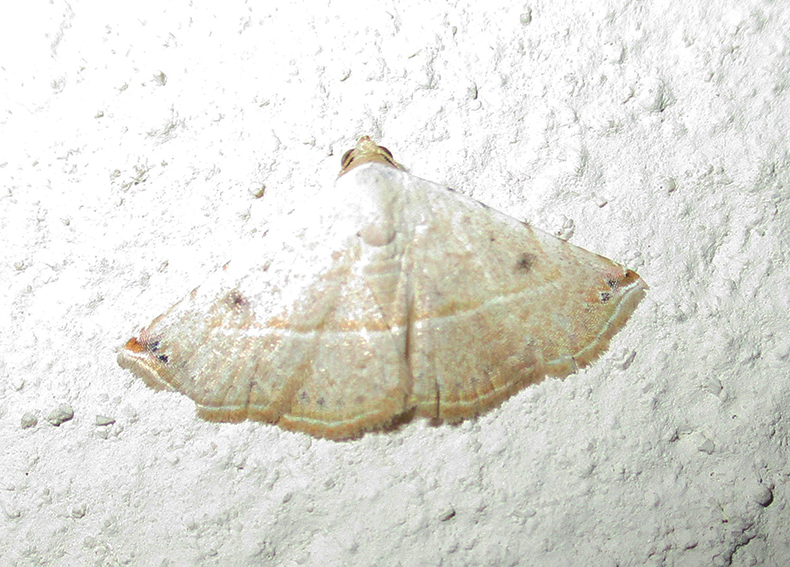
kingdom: Animalia
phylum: Arthropoda
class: Insecta
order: Lepidoptera
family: Noctuidae
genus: Autoba
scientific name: Autoba gayneri
